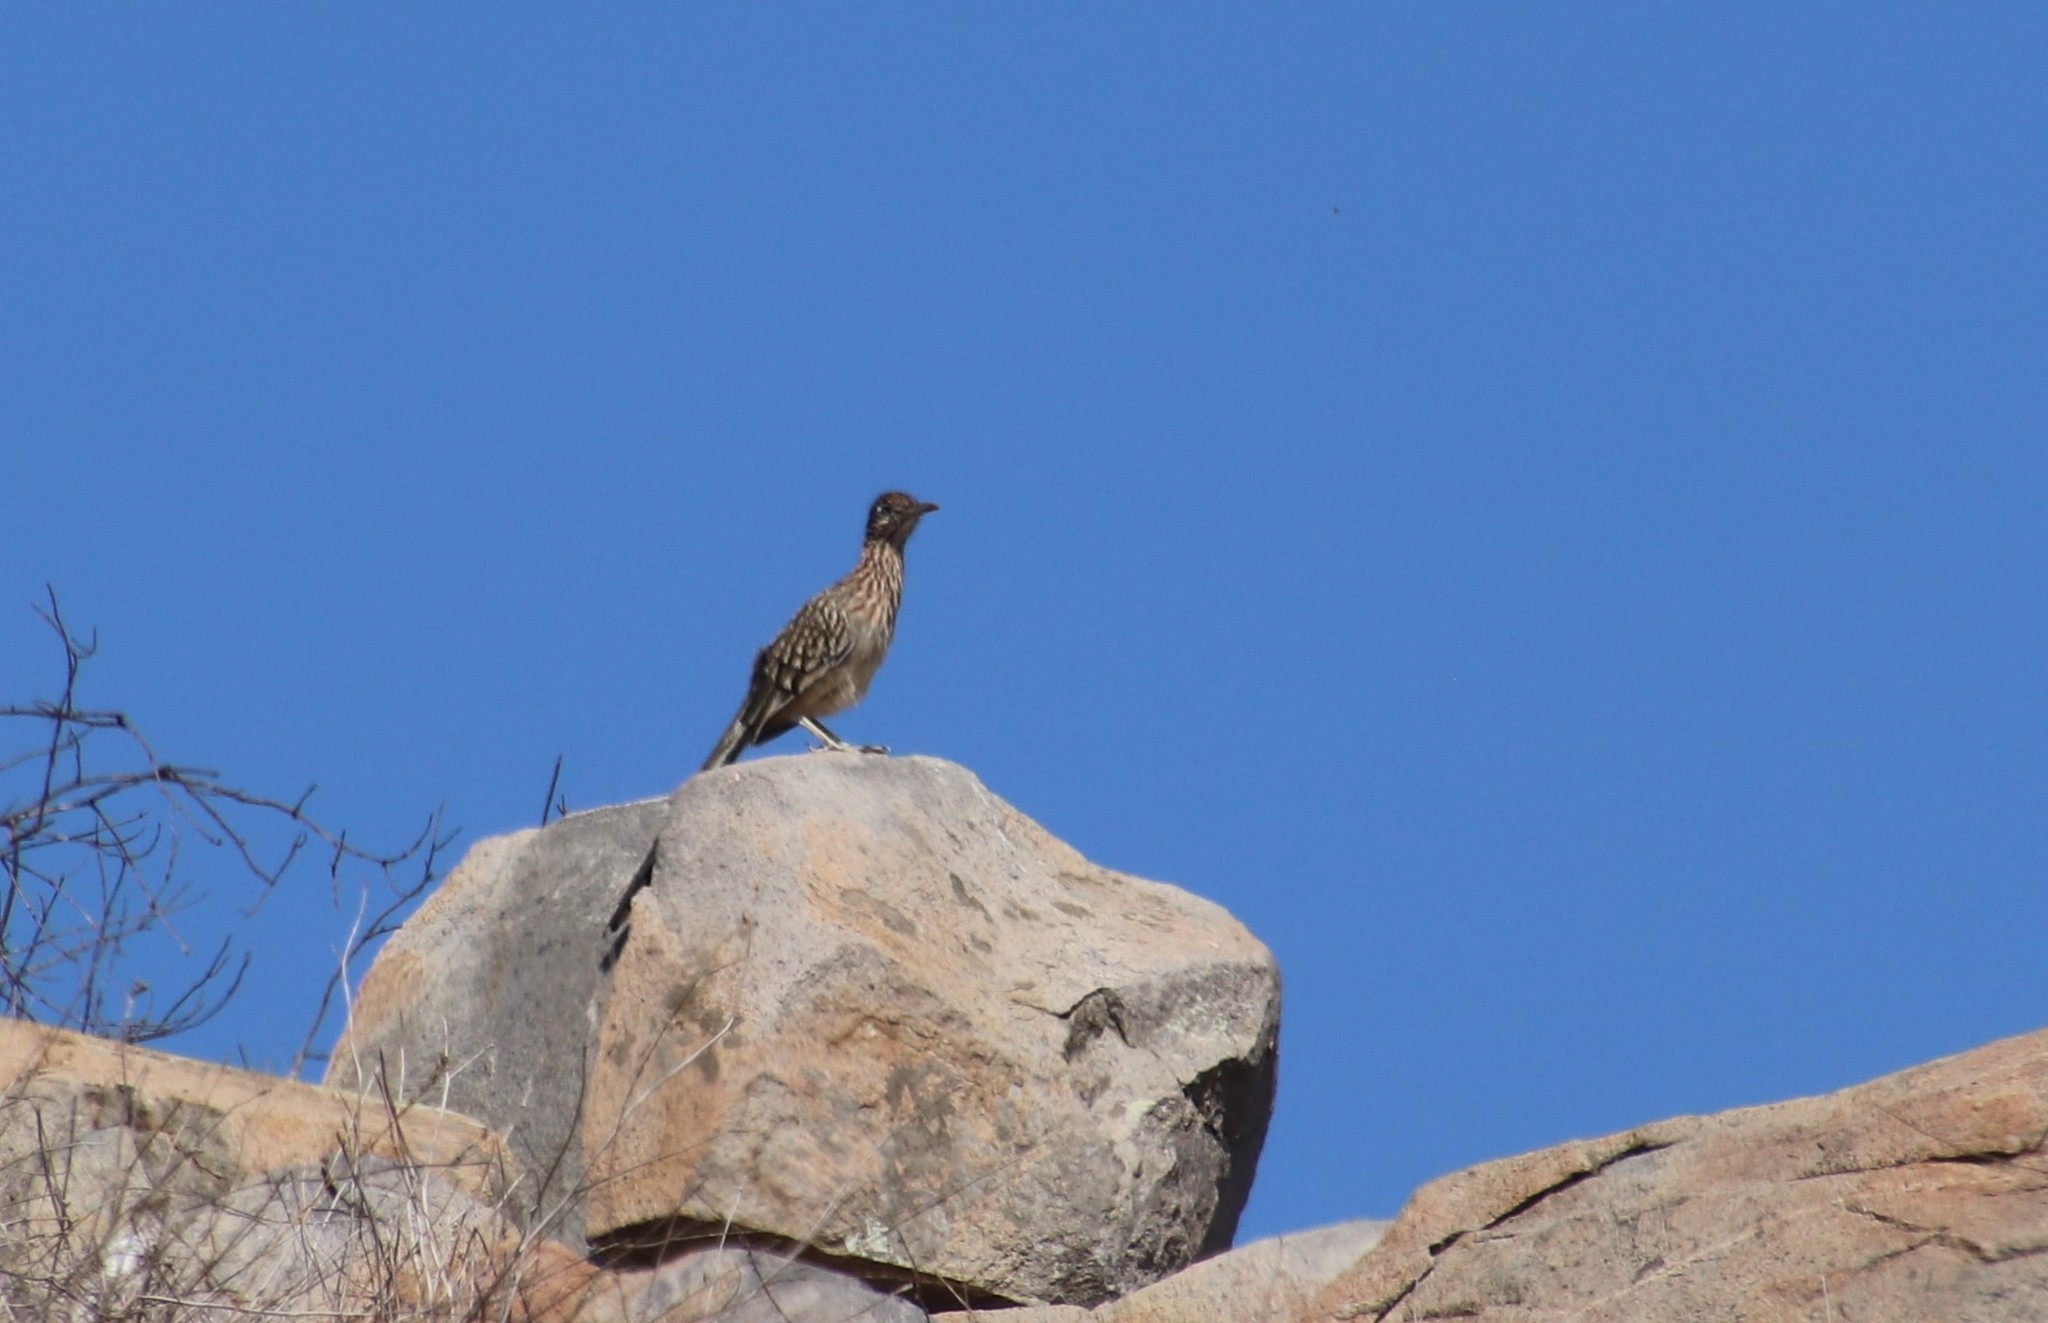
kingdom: Animalia
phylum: Chordata
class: Aves
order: Cuculiformes
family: Cuculidae
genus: Geococcyx
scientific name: Geococcyx californianus
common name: Greater roadrunner
